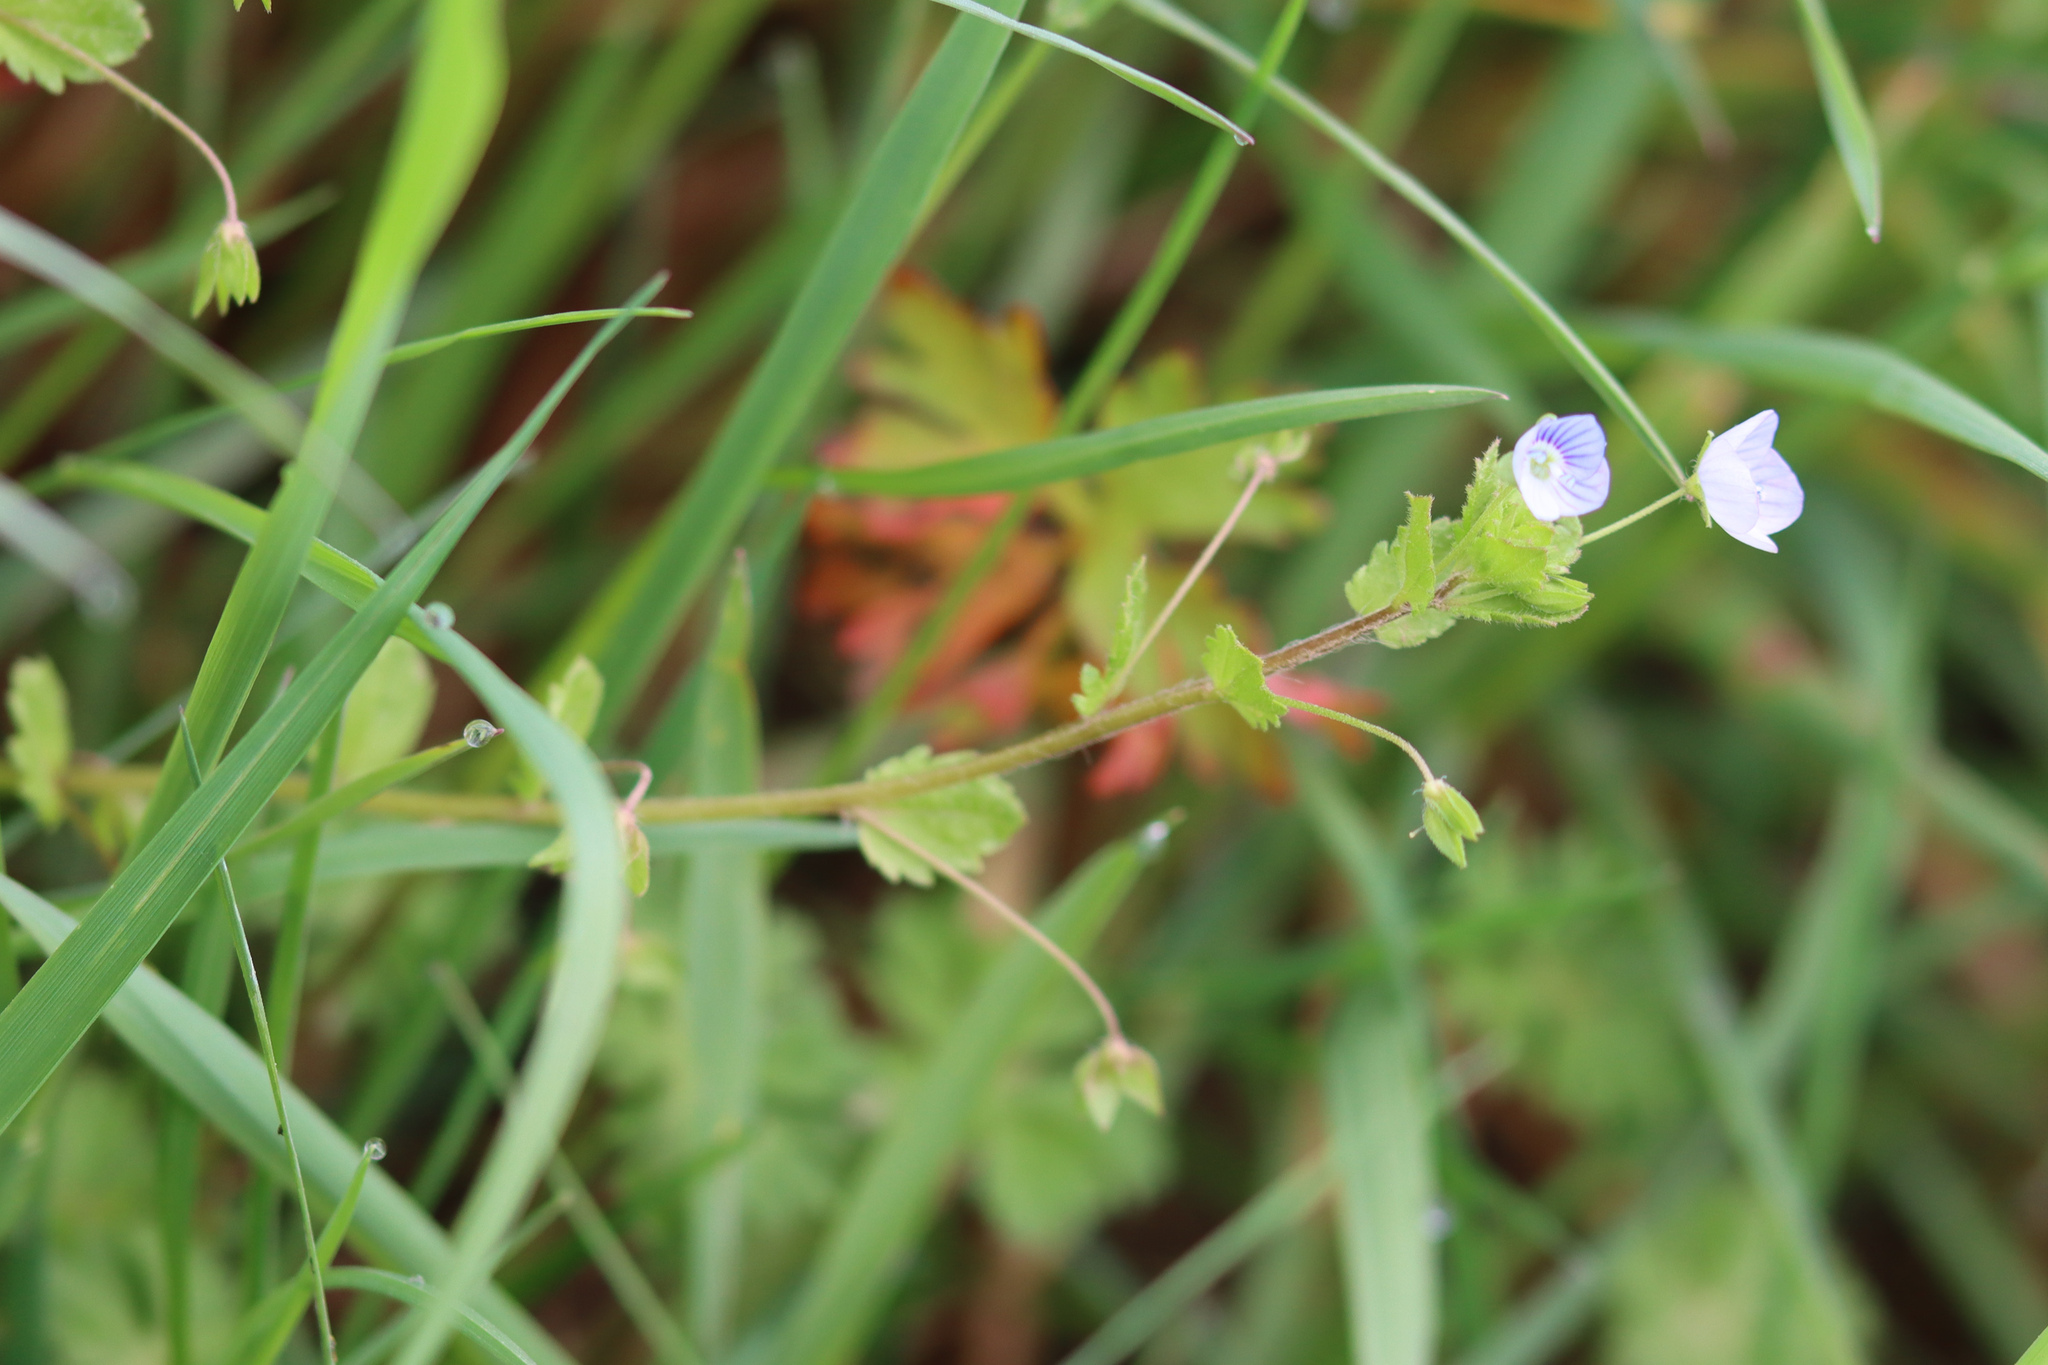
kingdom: Plantae
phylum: Tracheophyta
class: Magnoliopsida
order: Lamiales
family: Plantaginaceae
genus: Veronica
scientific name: Veronica persica
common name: Common field-speedwell
